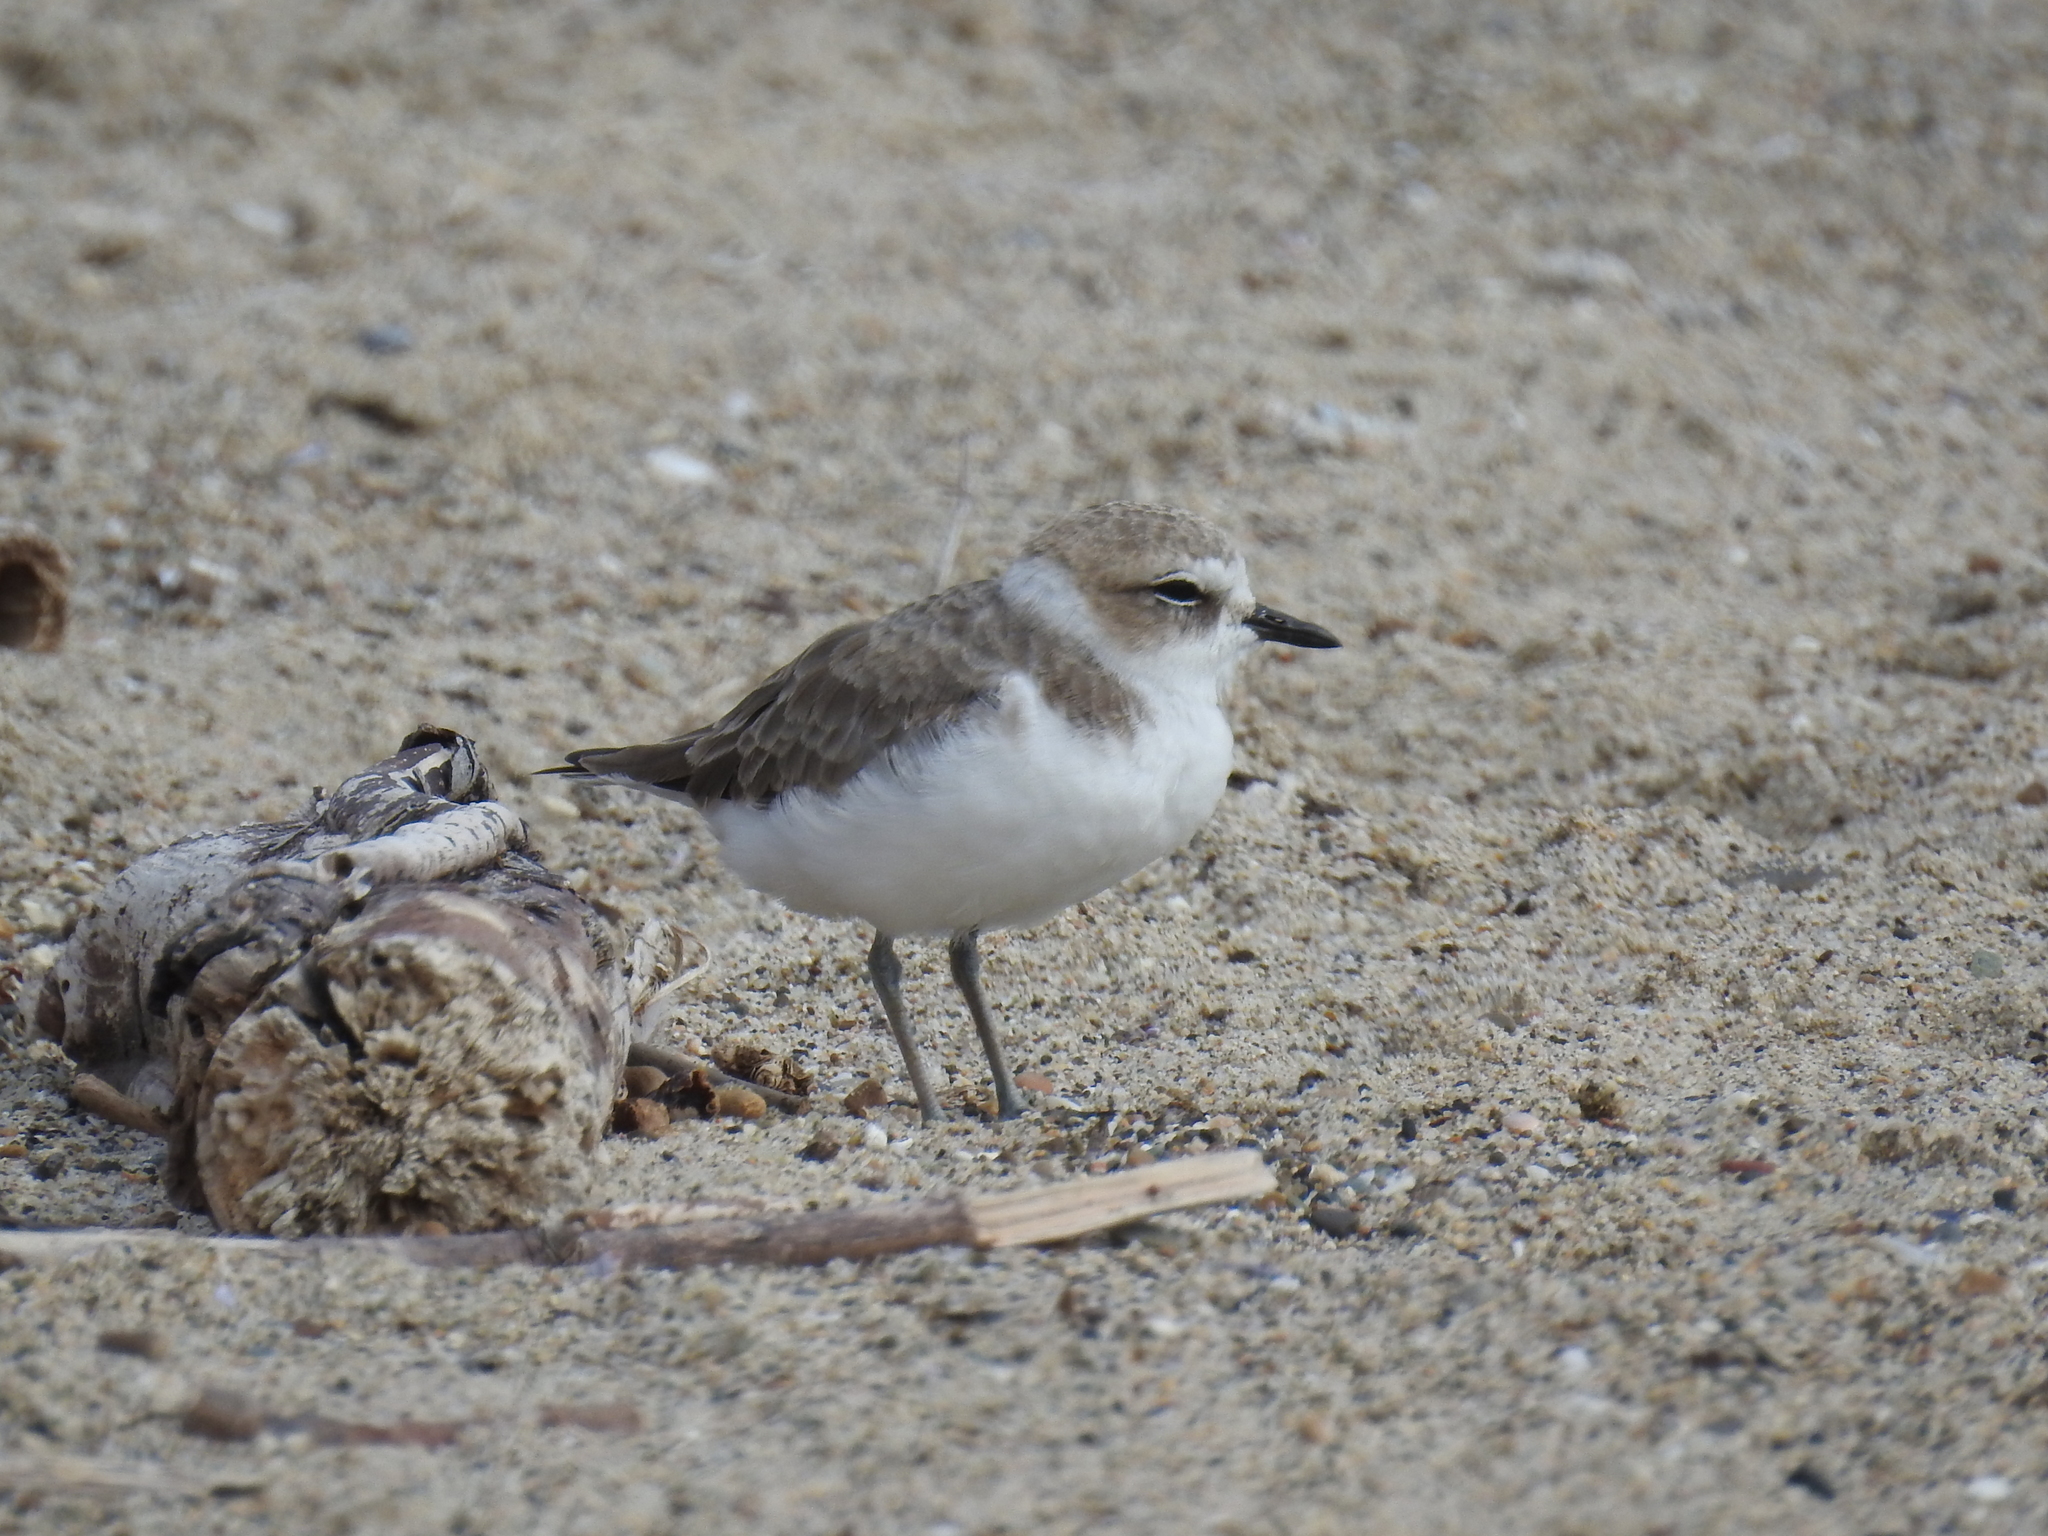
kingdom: Animalia
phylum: Chordata
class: Aves
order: Charadriiformes
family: Charadriidae
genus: Anarhynchus
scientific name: Anarhynchus
